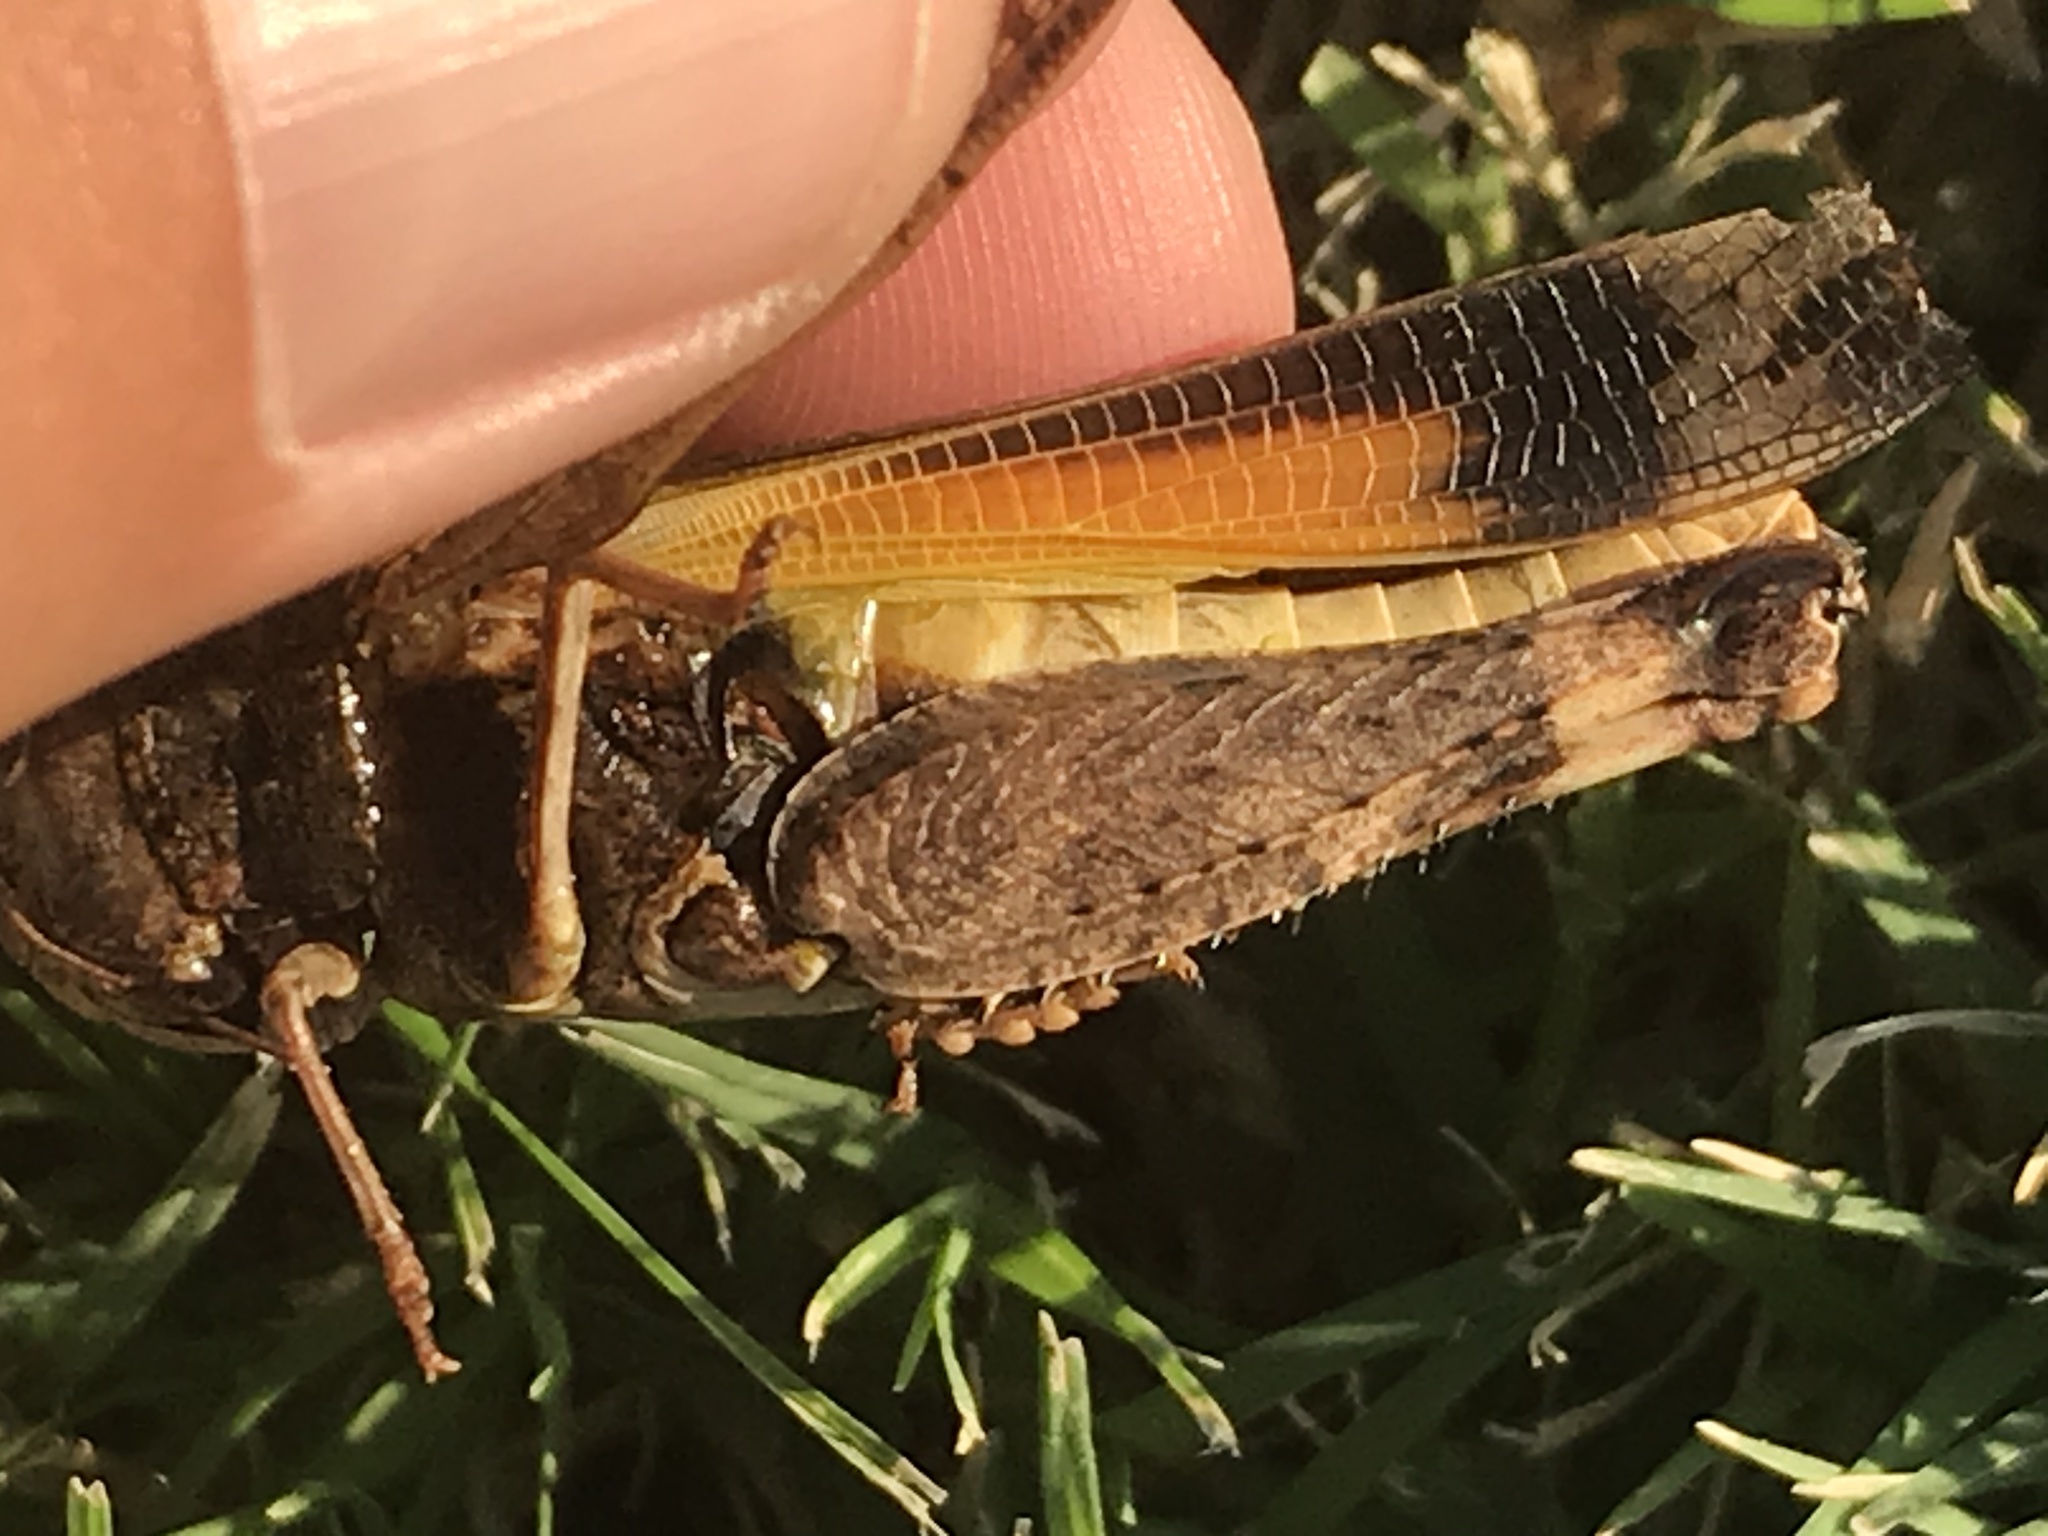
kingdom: Animalia
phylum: Arthropoda
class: Insecta
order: Orthoptera
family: Acrididae
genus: Arphia
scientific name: Arphia simplex
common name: Plains yellow-winged grasshopper
